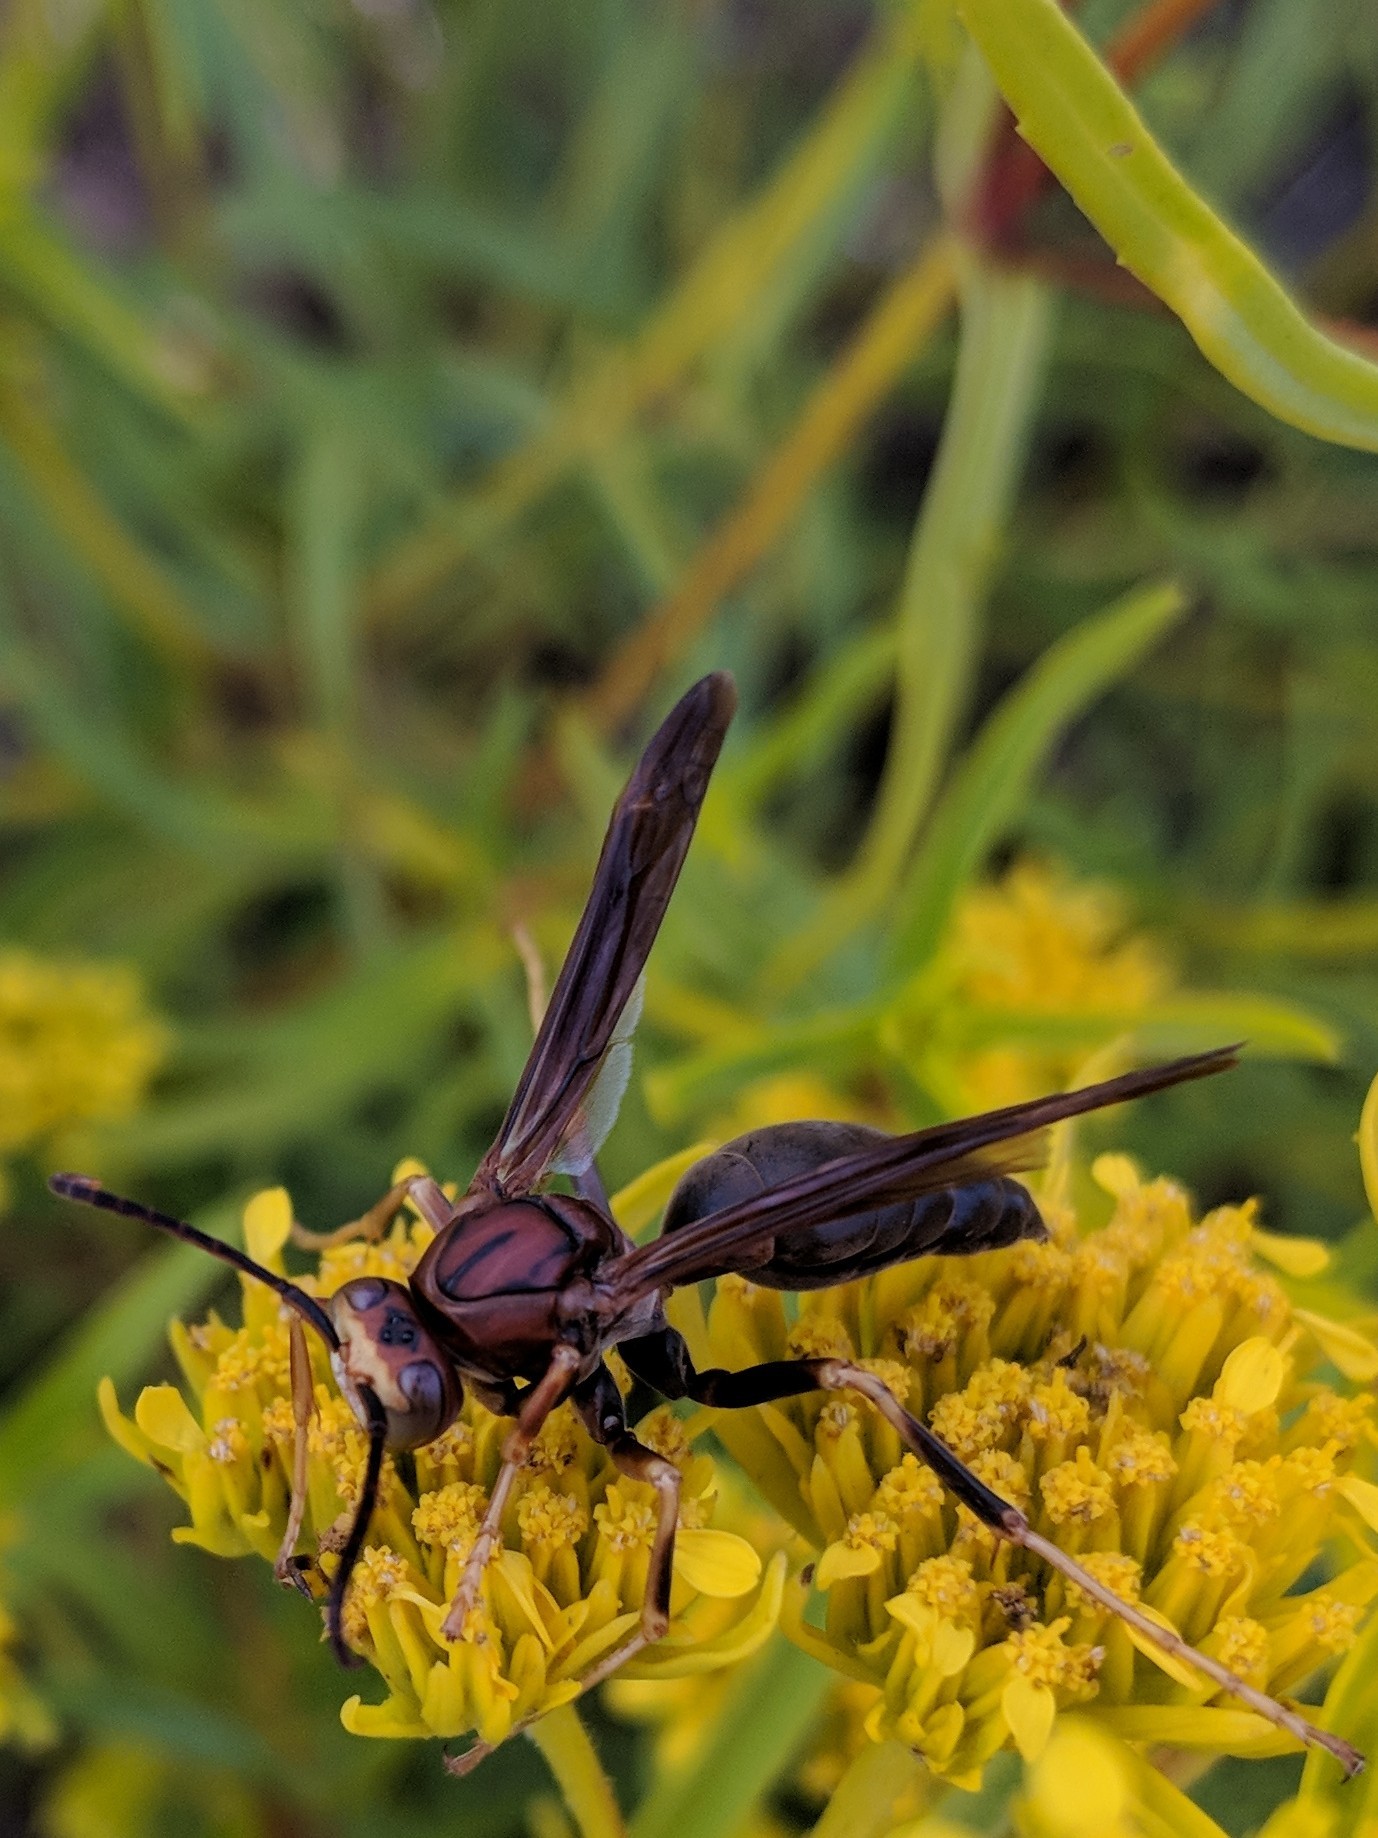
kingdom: Animalia
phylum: Arthropoda
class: Insecta
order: Hymenoptera
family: Eumenidae
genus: Polistes
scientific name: Polistes metricus
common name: Metric paper wasp
